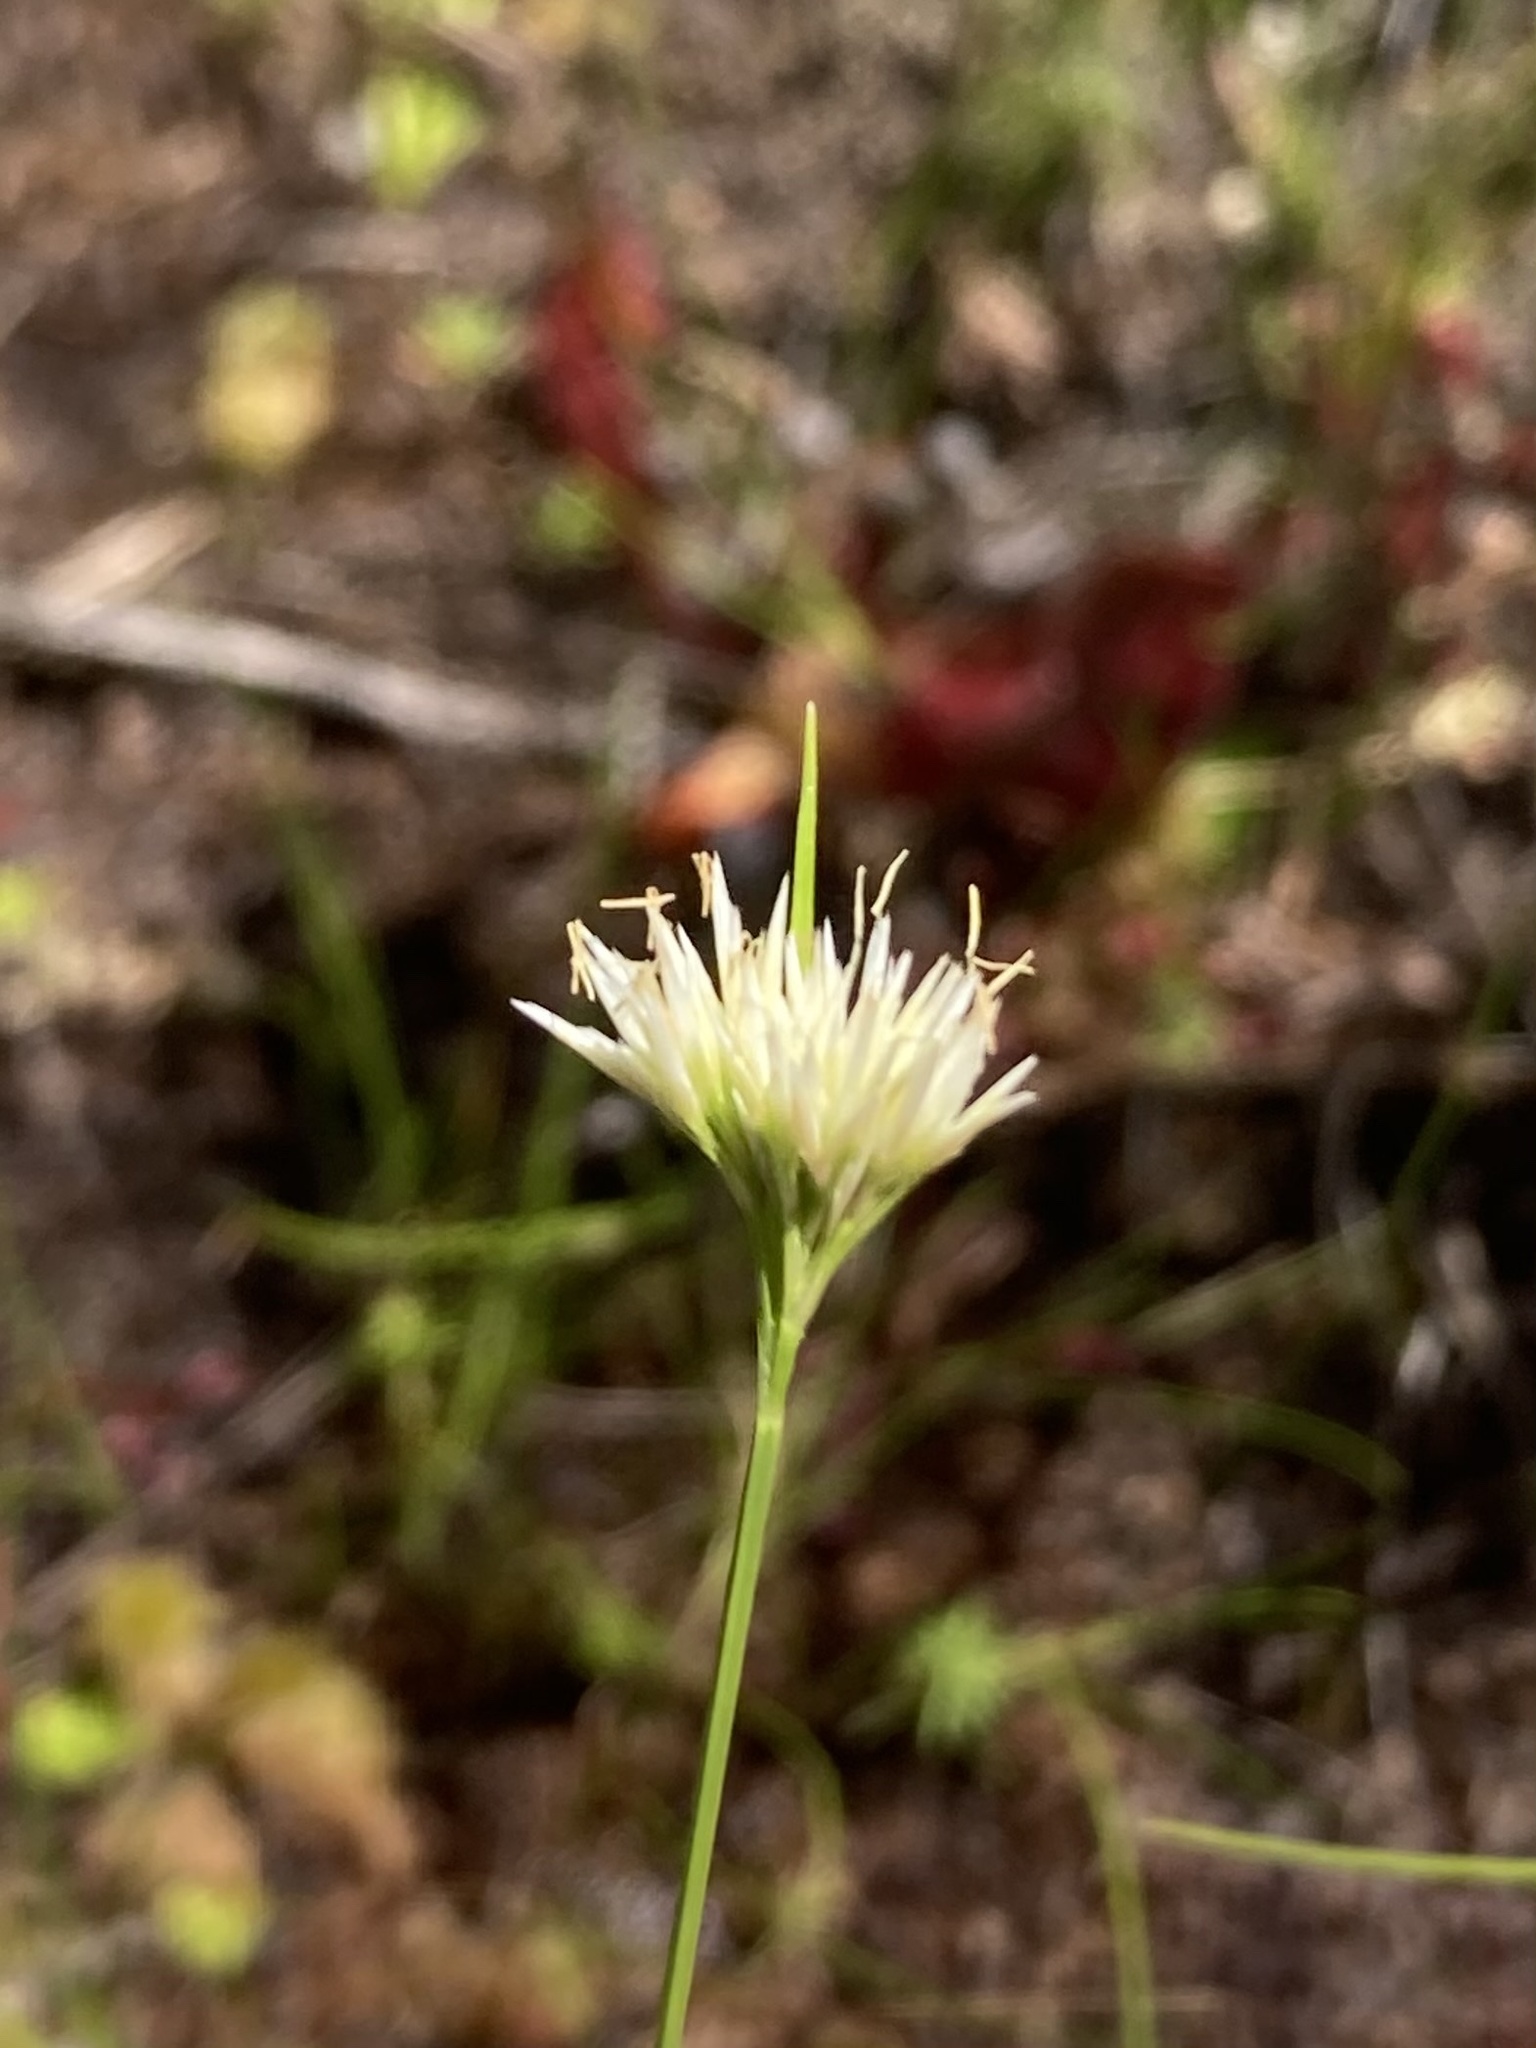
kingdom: Plantae
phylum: Tracheophyta
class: Liliopsida
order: Poales
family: Cyperaceae
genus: Rhynchospora
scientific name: Rhynchospora alba
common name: White beak-sedge
